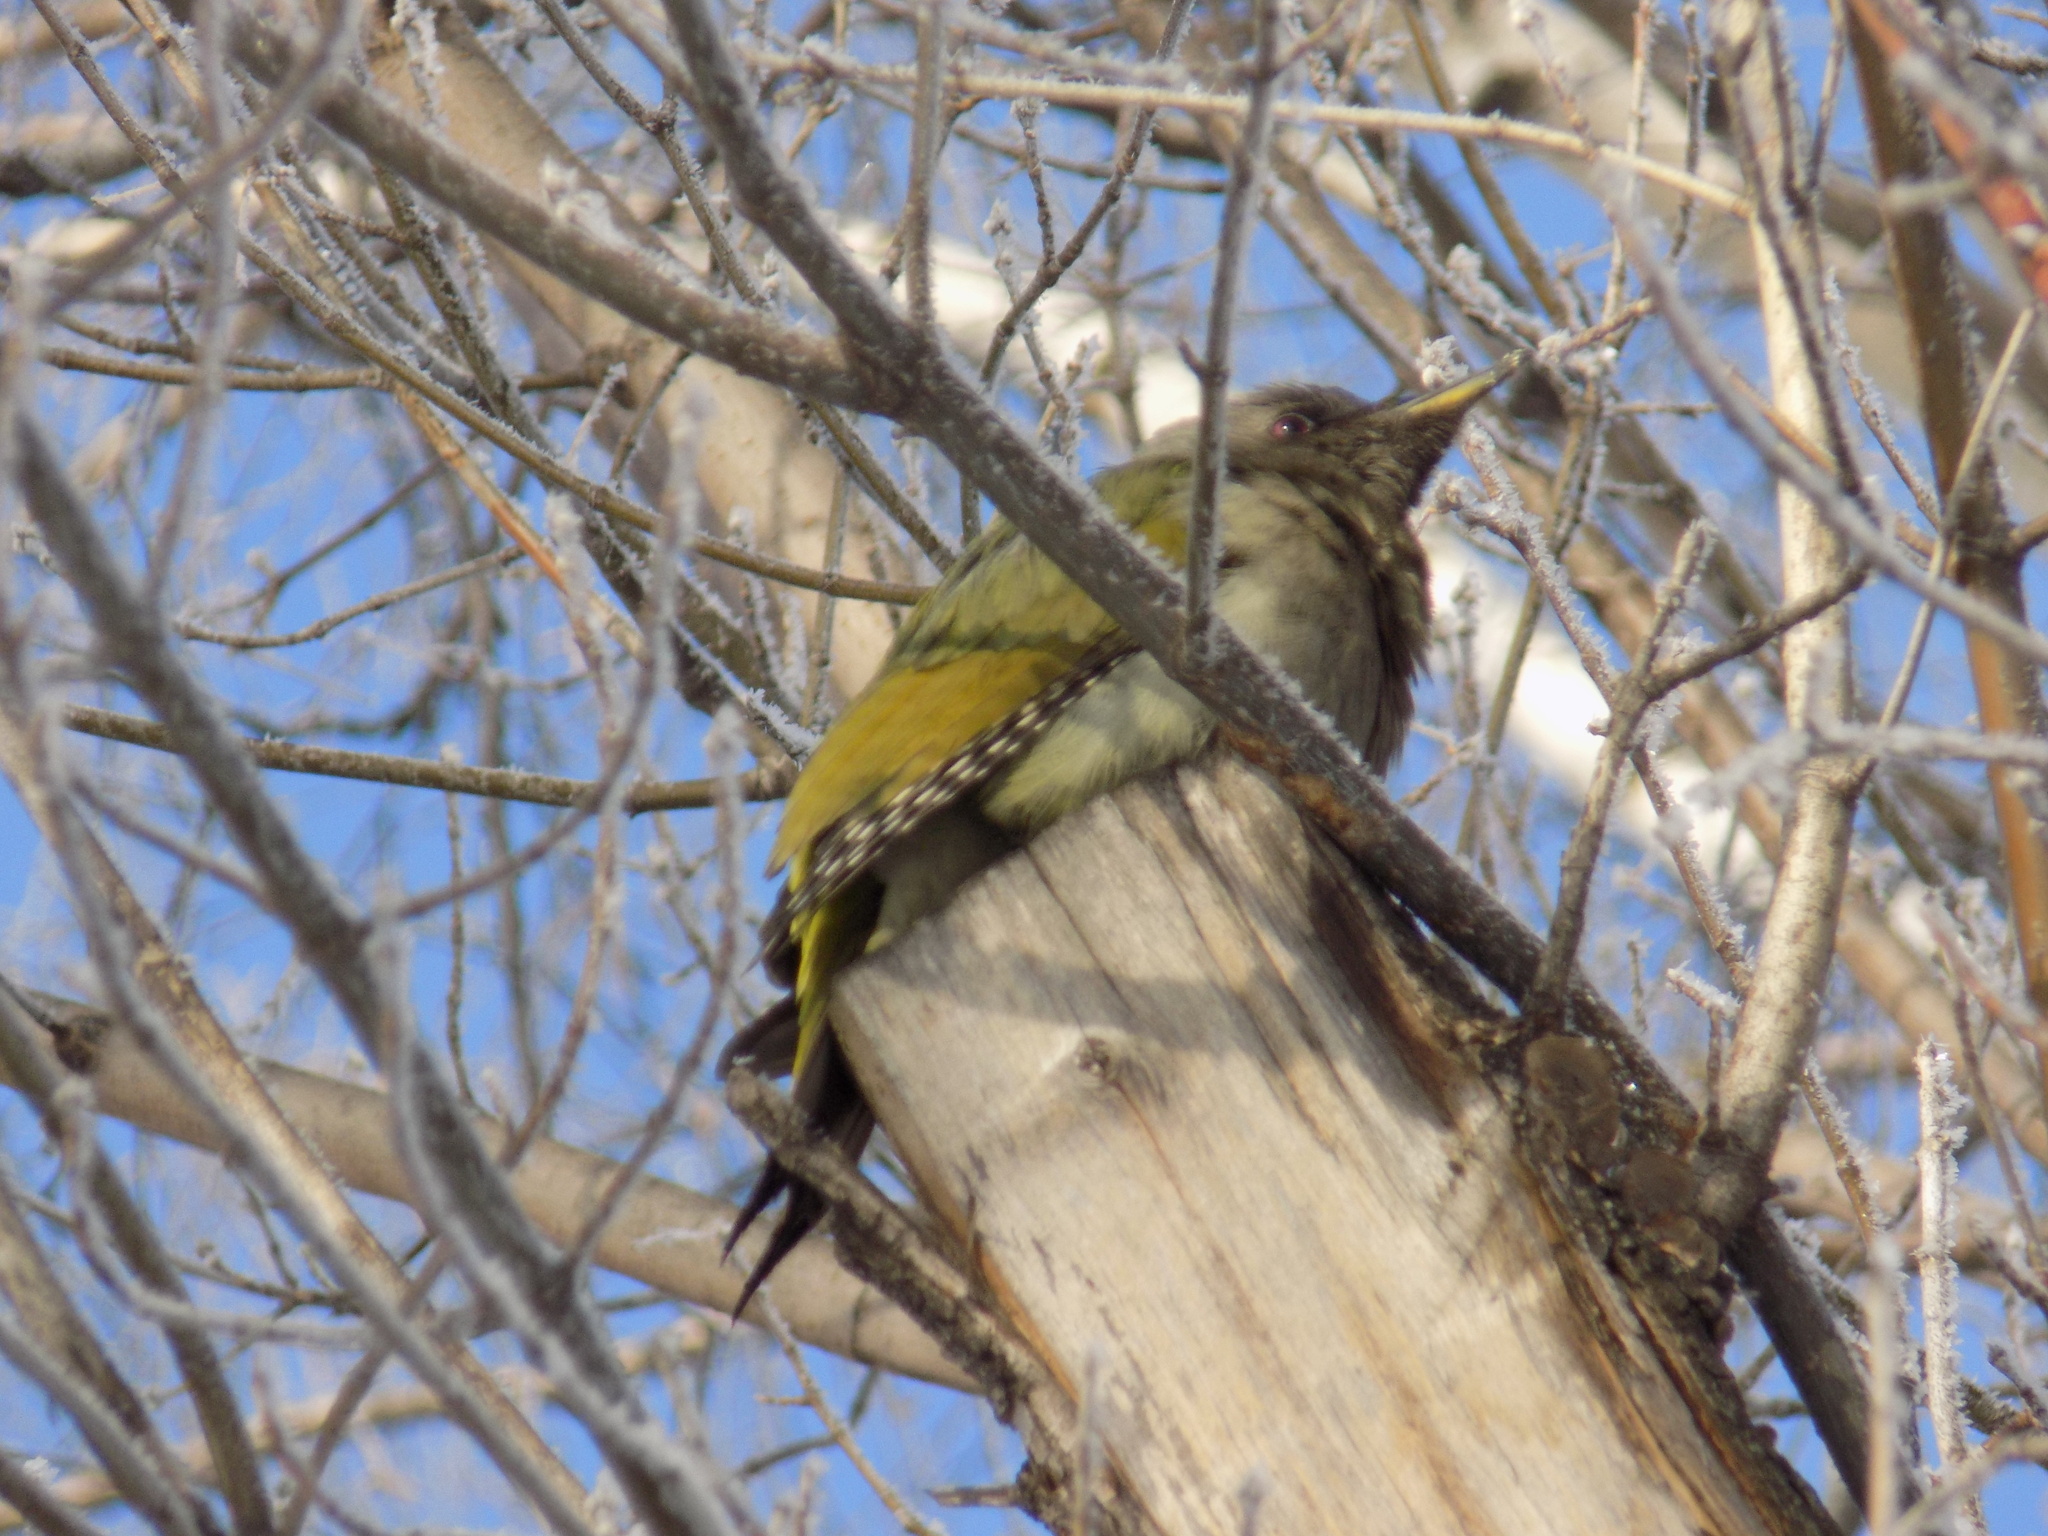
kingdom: Animalia
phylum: Chordata
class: Aves
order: Piciformes
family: Picidae
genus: Picus
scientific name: Picus canus
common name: Grey-headed woodpecker
